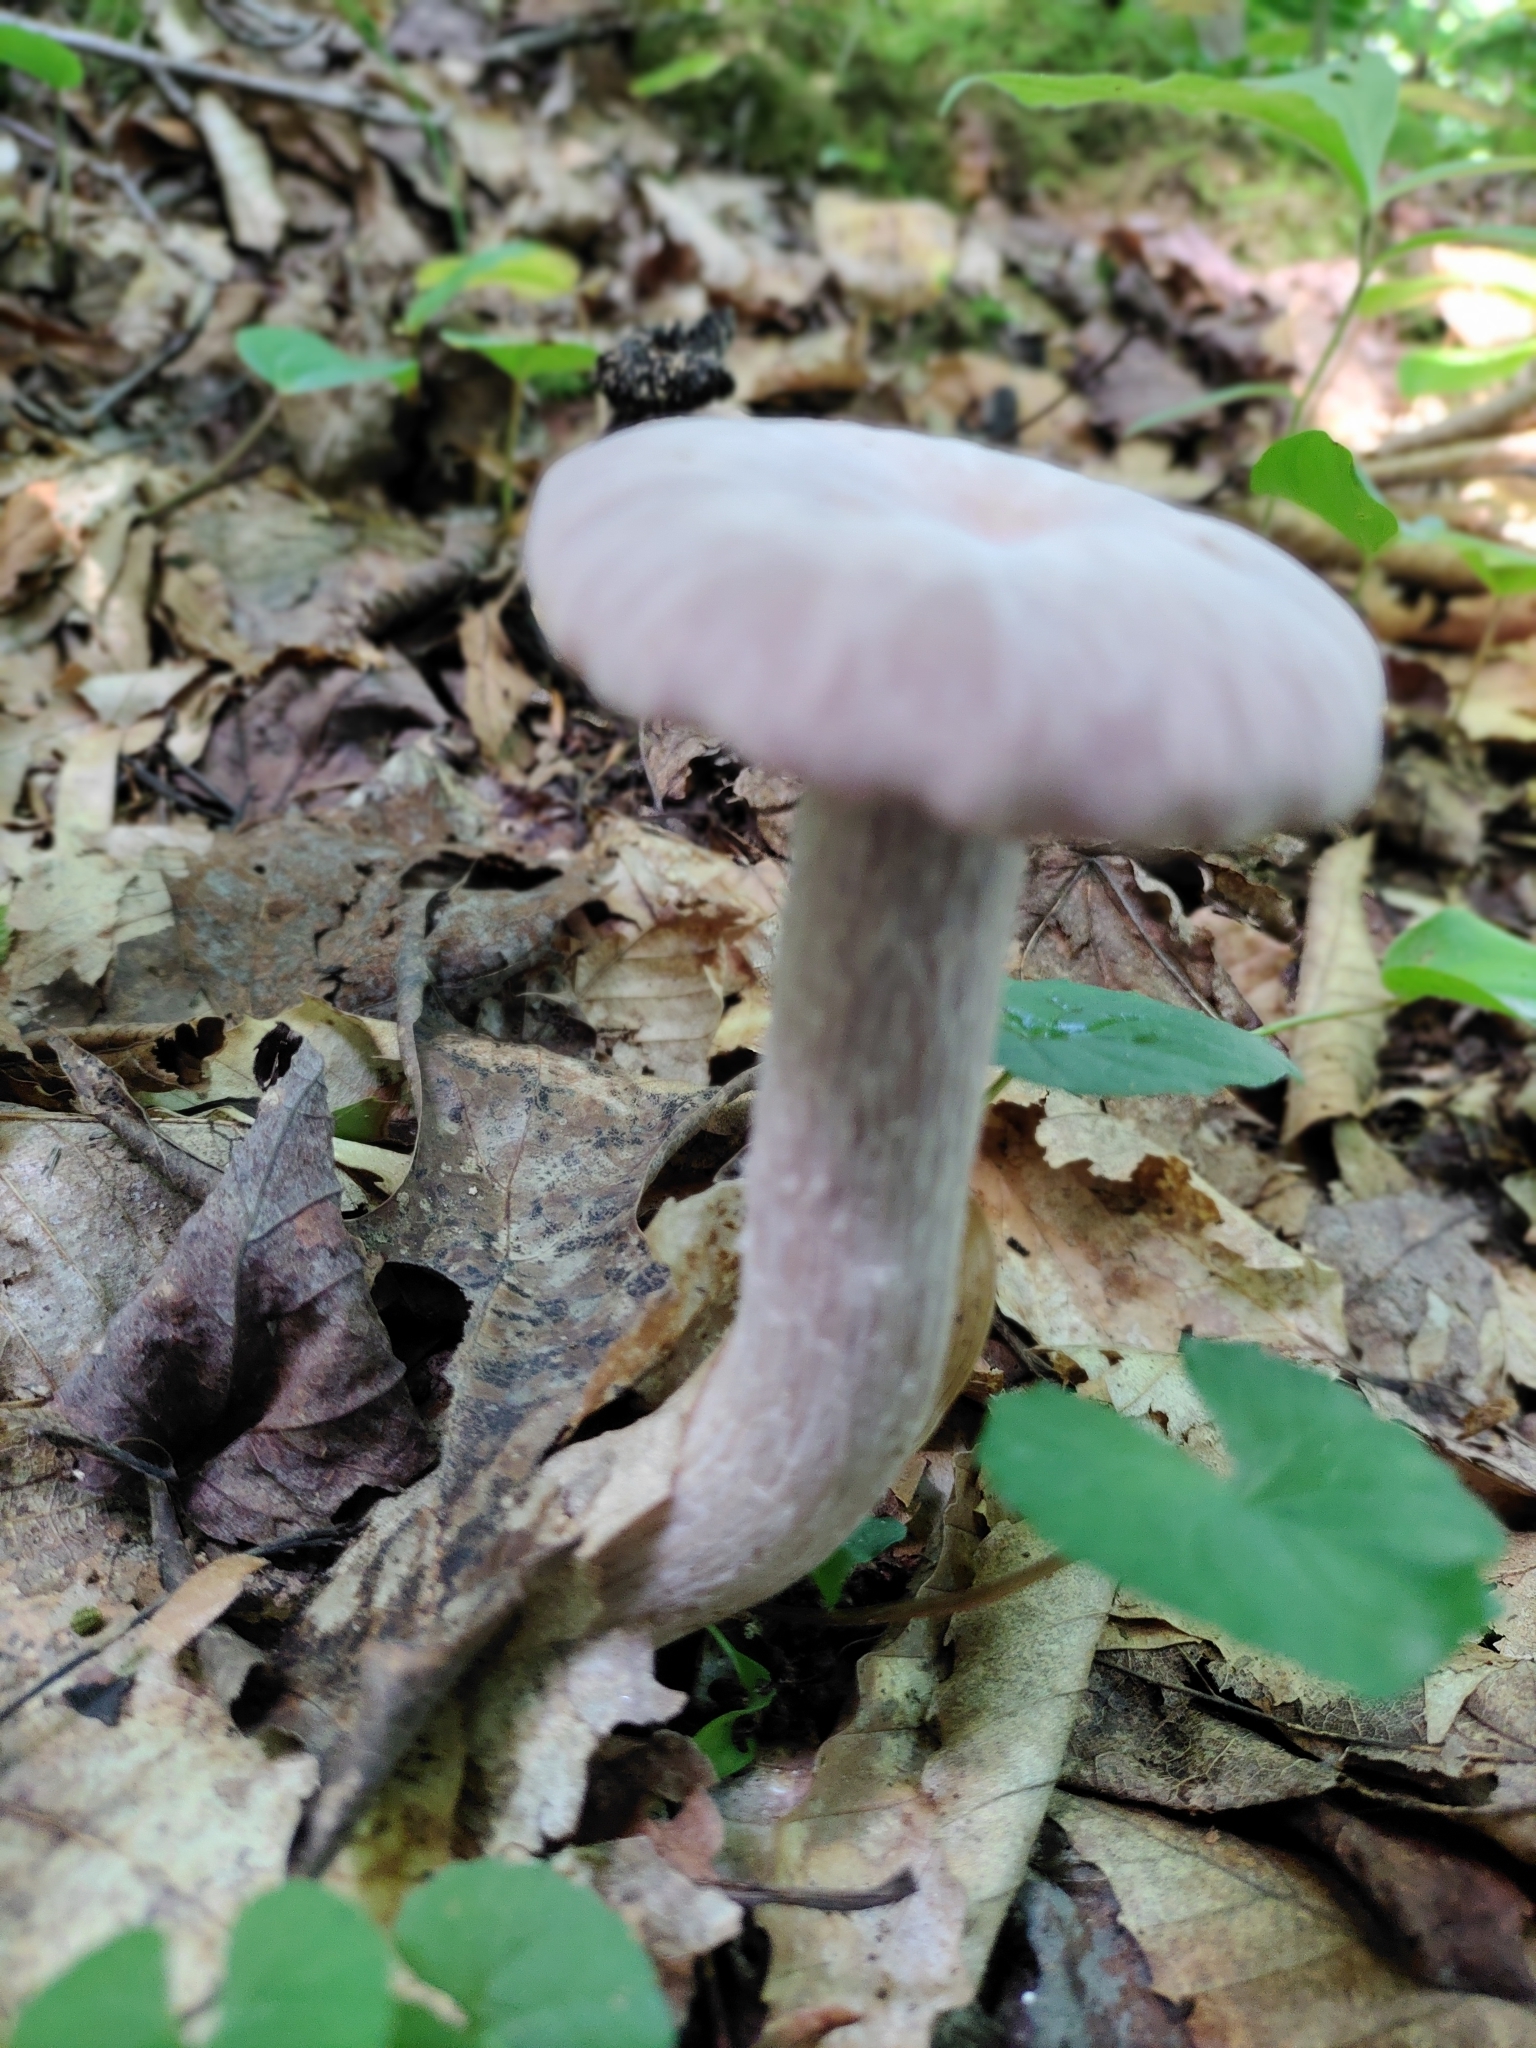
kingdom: Fungi
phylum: Basidiomycota
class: Agaricomycetes
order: Agaricales
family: Hydnangiaceae
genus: Laccaria
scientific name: Laccaria ochropurpurea
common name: Purple laccaria
